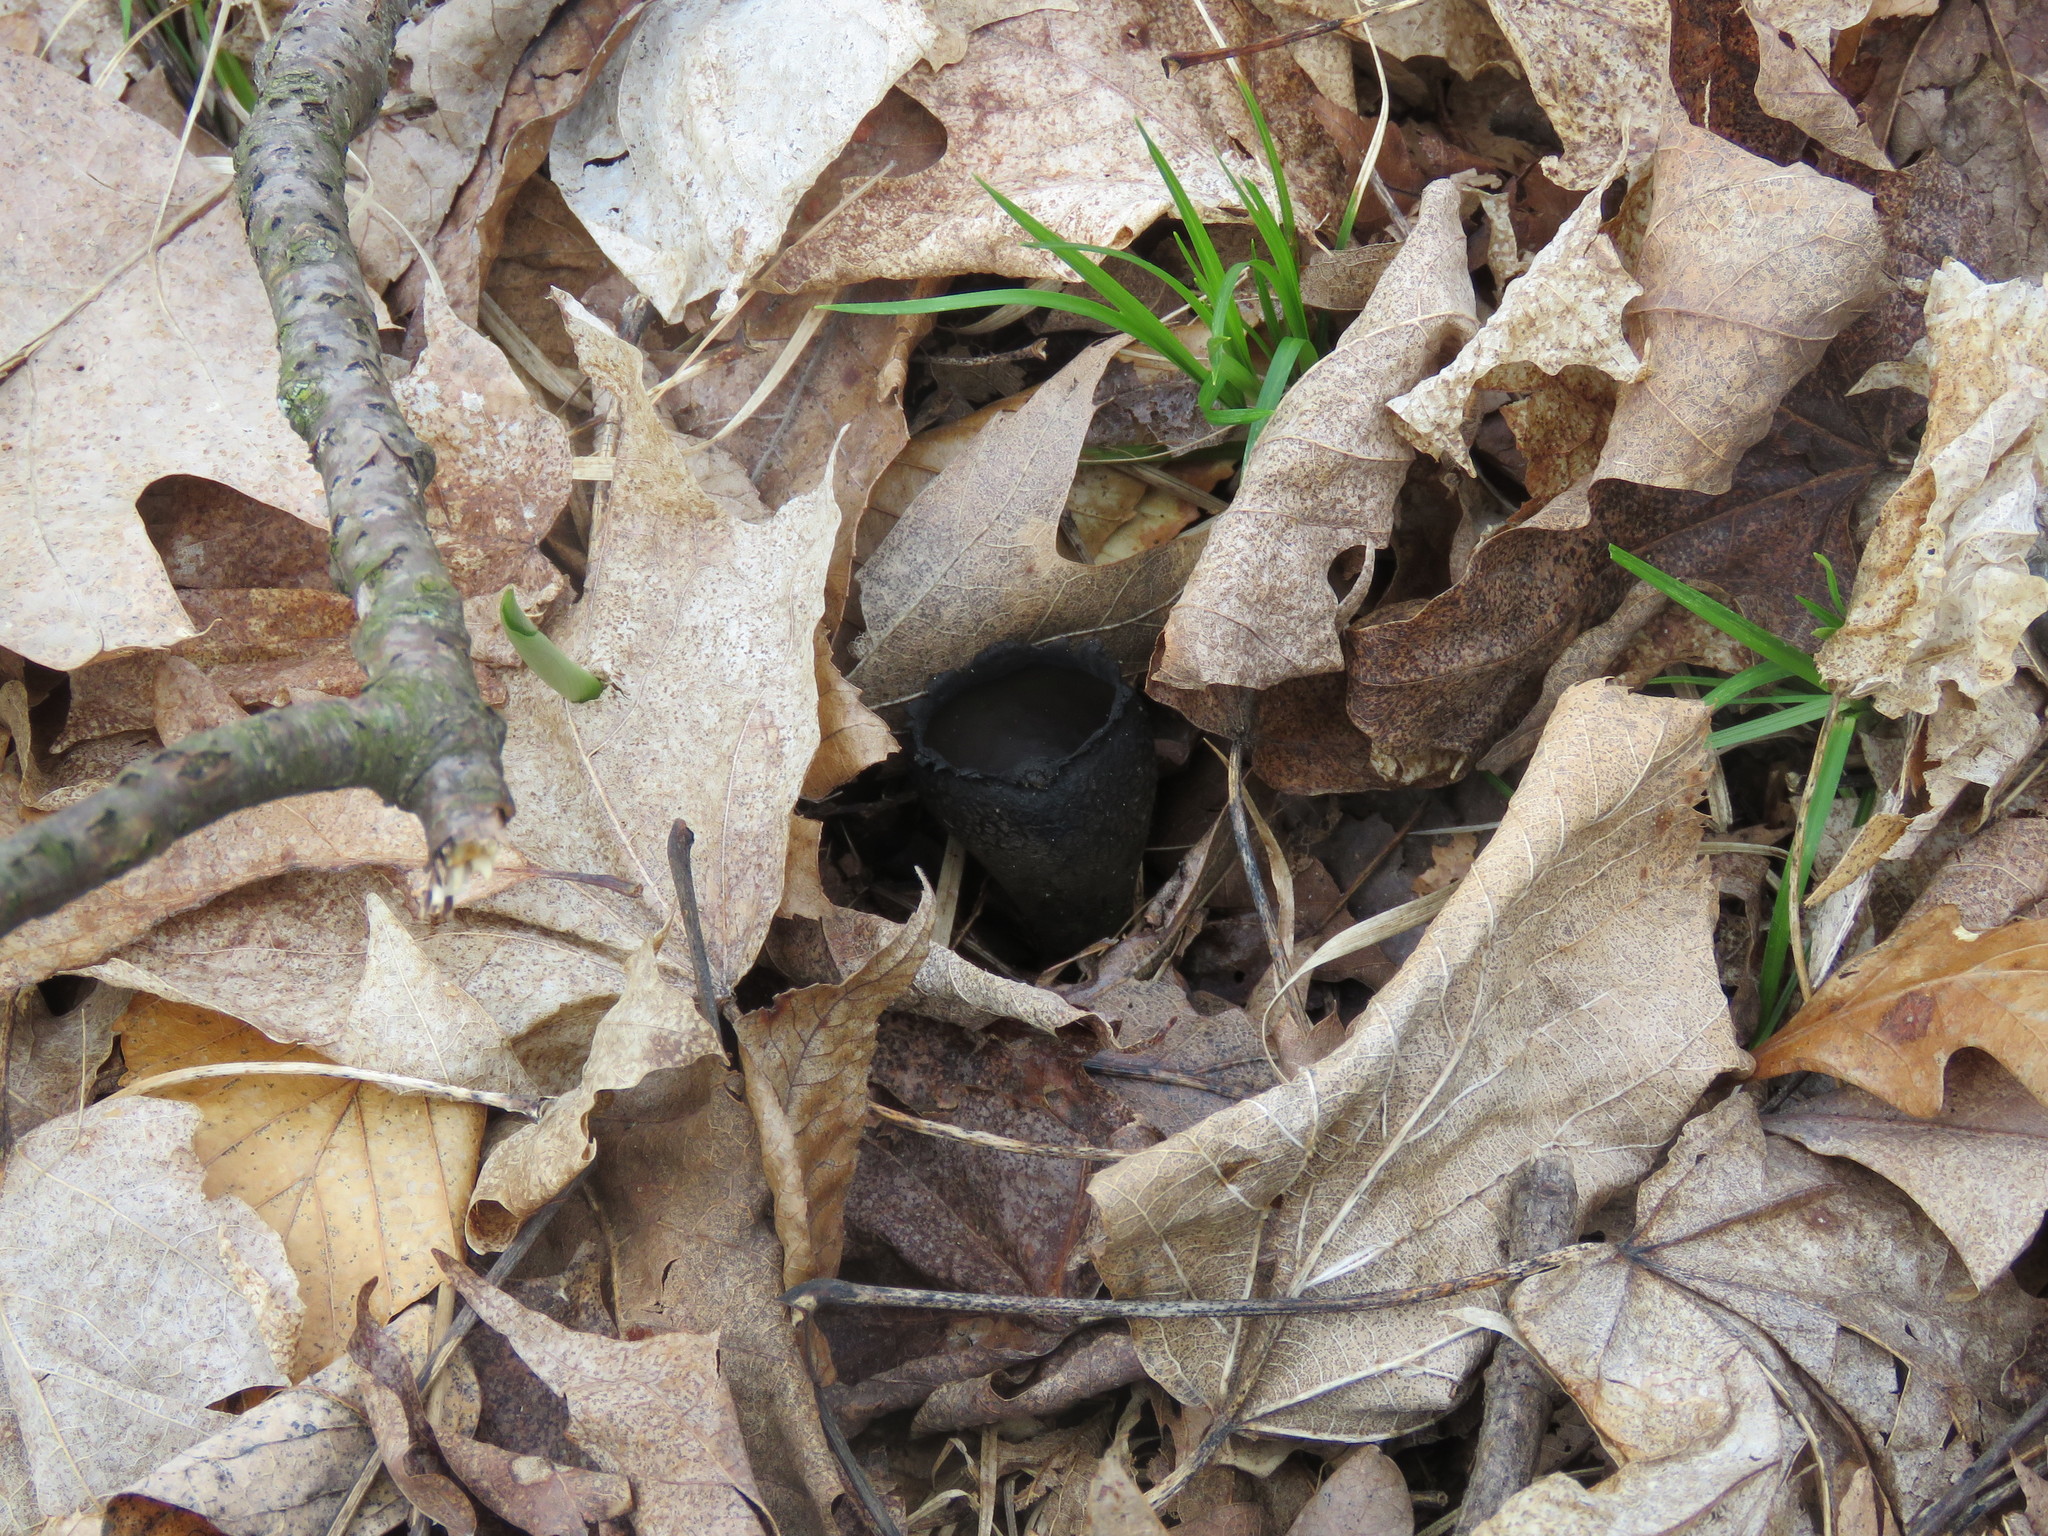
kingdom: Fungi
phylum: Ascomycota
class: Pezizomycetes
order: Pezizales
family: Sarcosomataceae
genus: Urnula
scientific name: Urnula craterium
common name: Devil's urn
